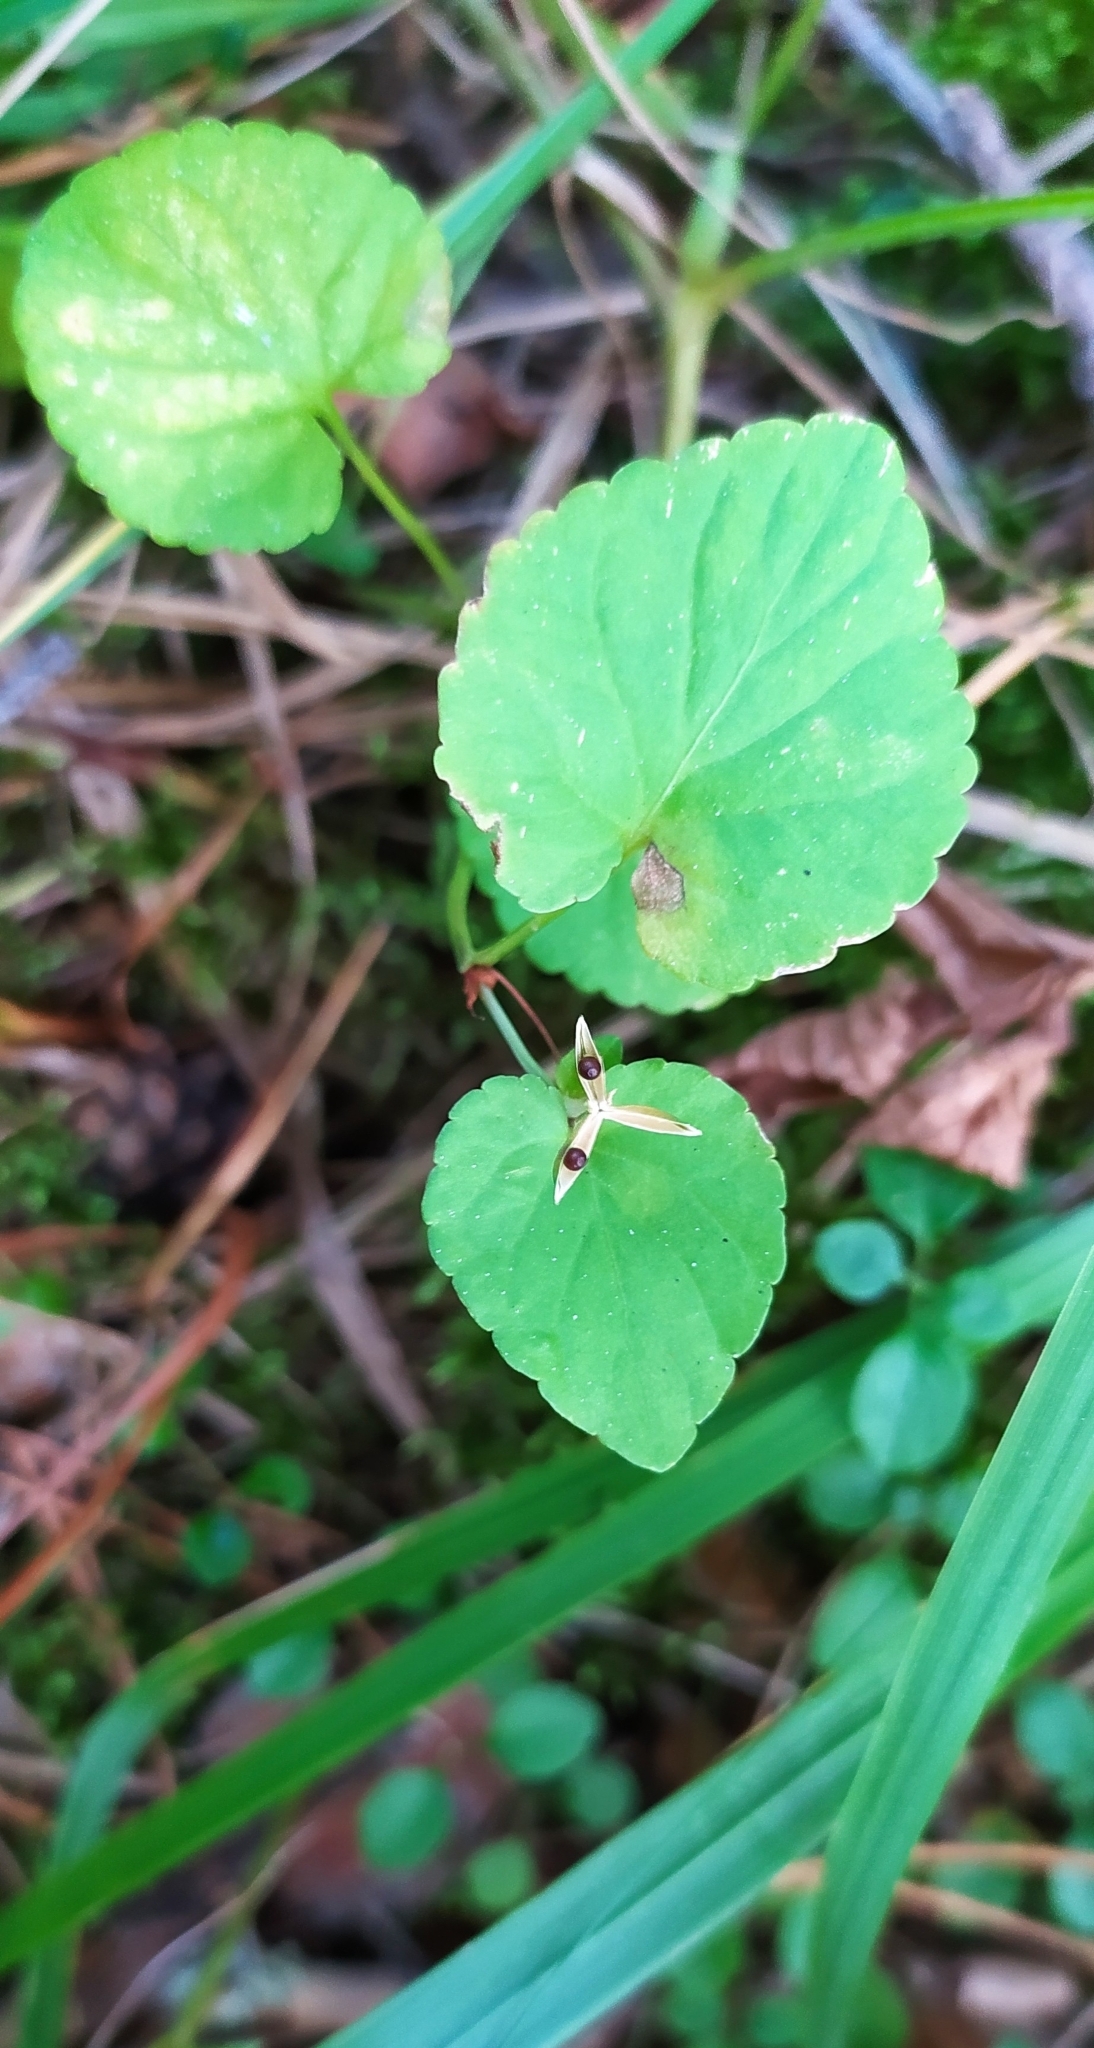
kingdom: Plantae
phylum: Tracheophyta
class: Magnoliopsida
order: Malpighiales
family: Violaceae
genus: Viola
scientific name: Viola rupestris
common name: Teesdale violet
